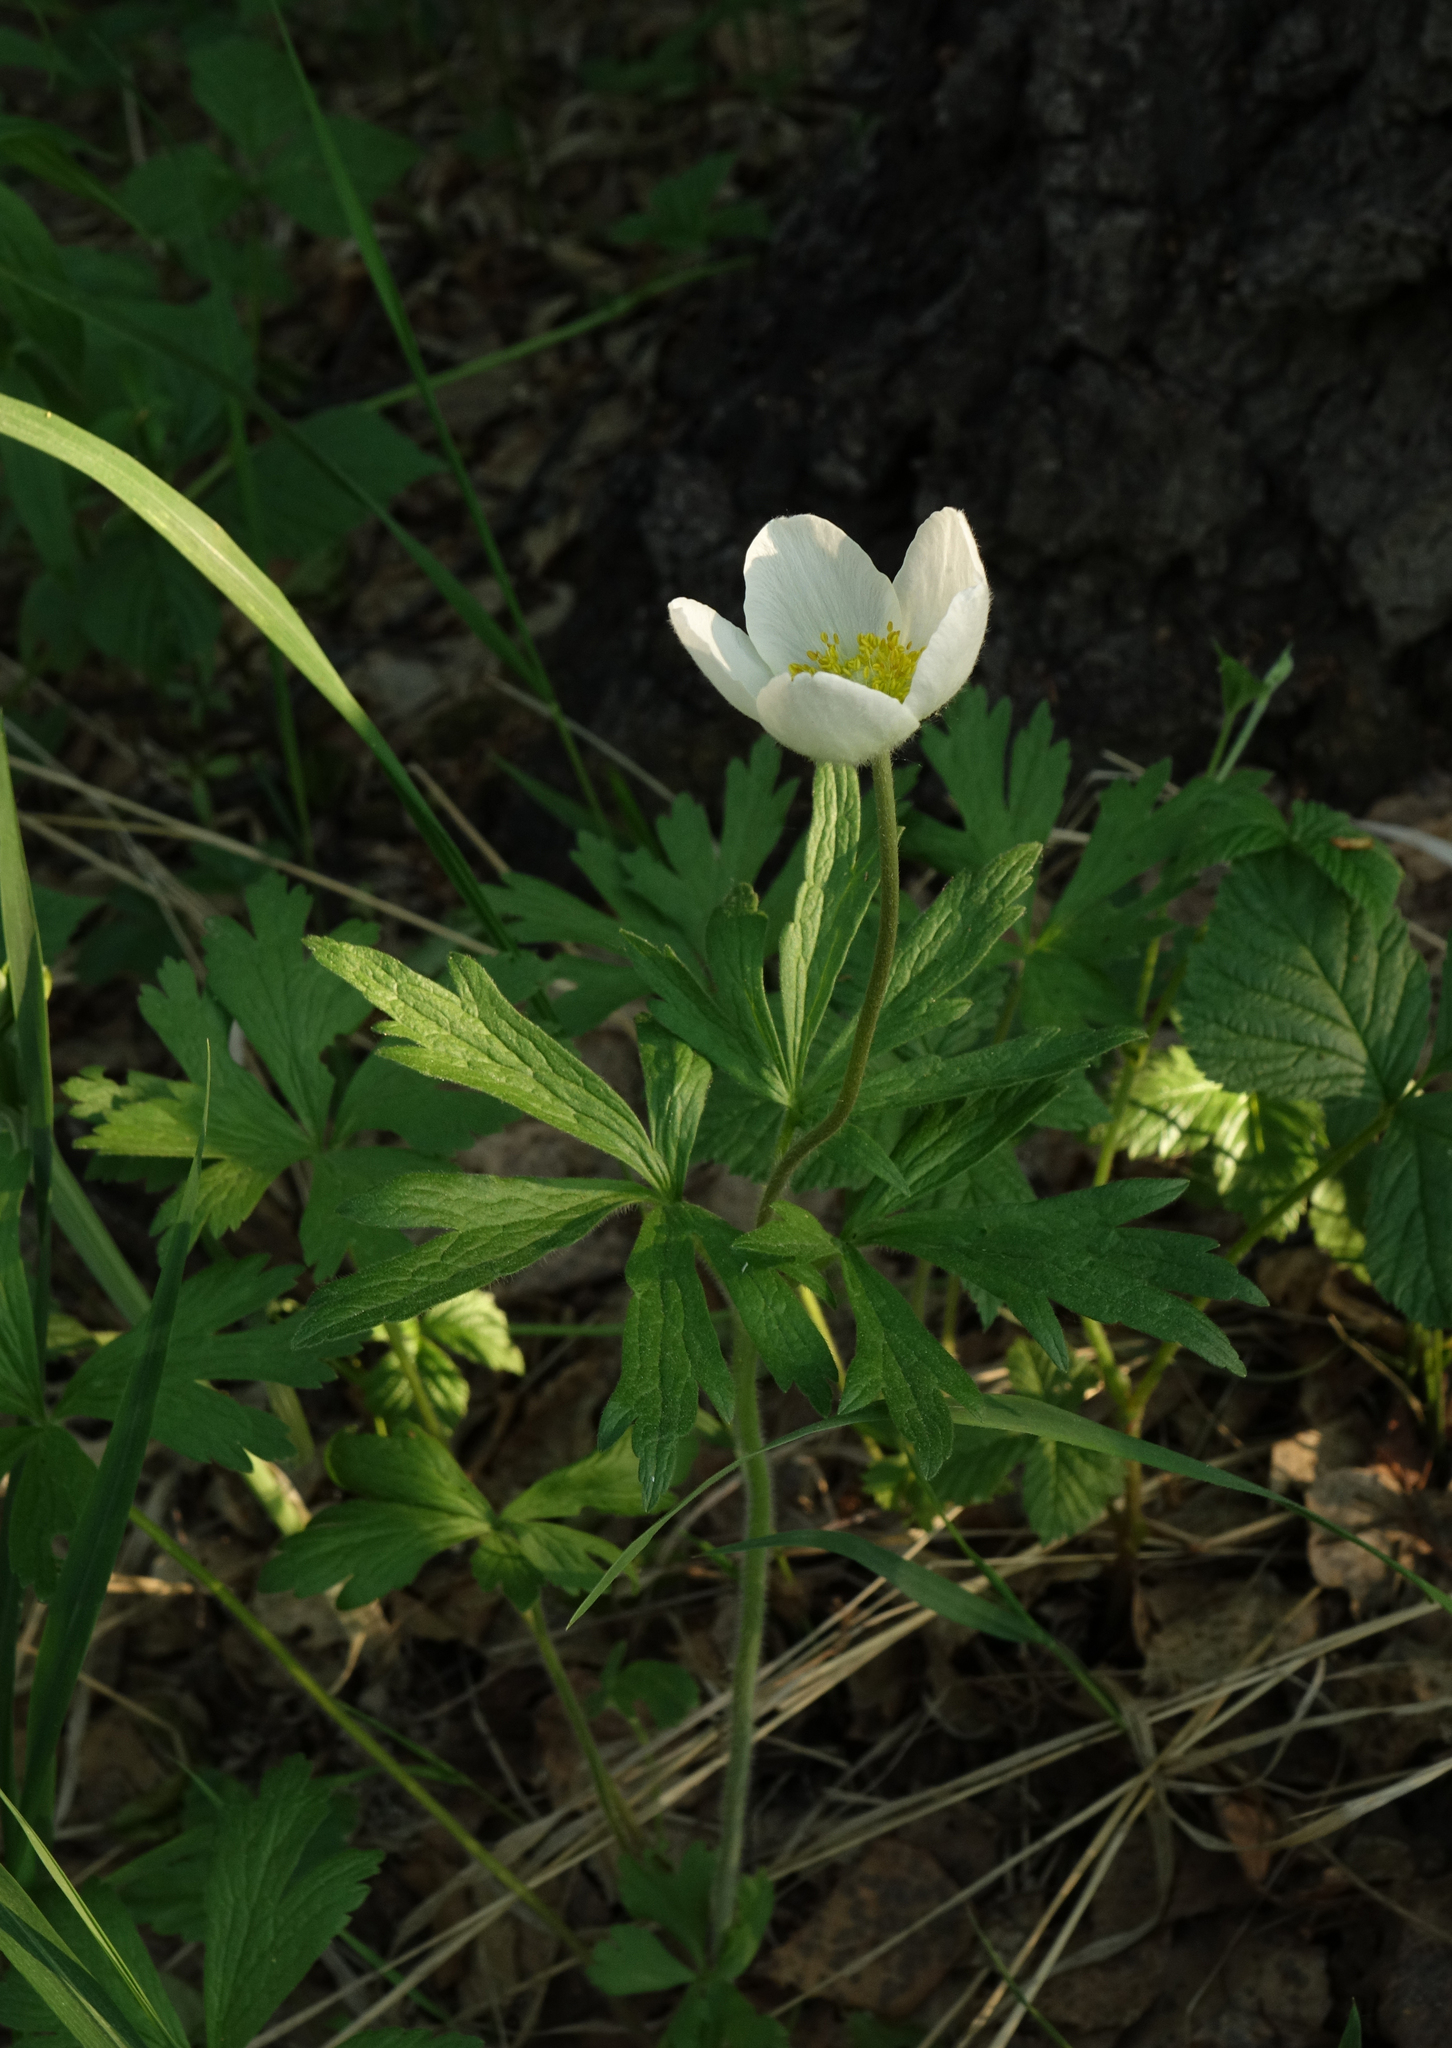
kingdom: Plantae
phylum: Tracheophyta
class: Magnoliopsida
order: Ranunculales
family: Ranunculaceae
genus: Anemone
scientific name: Anemone sylvestris
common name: Snowdrop anemone
